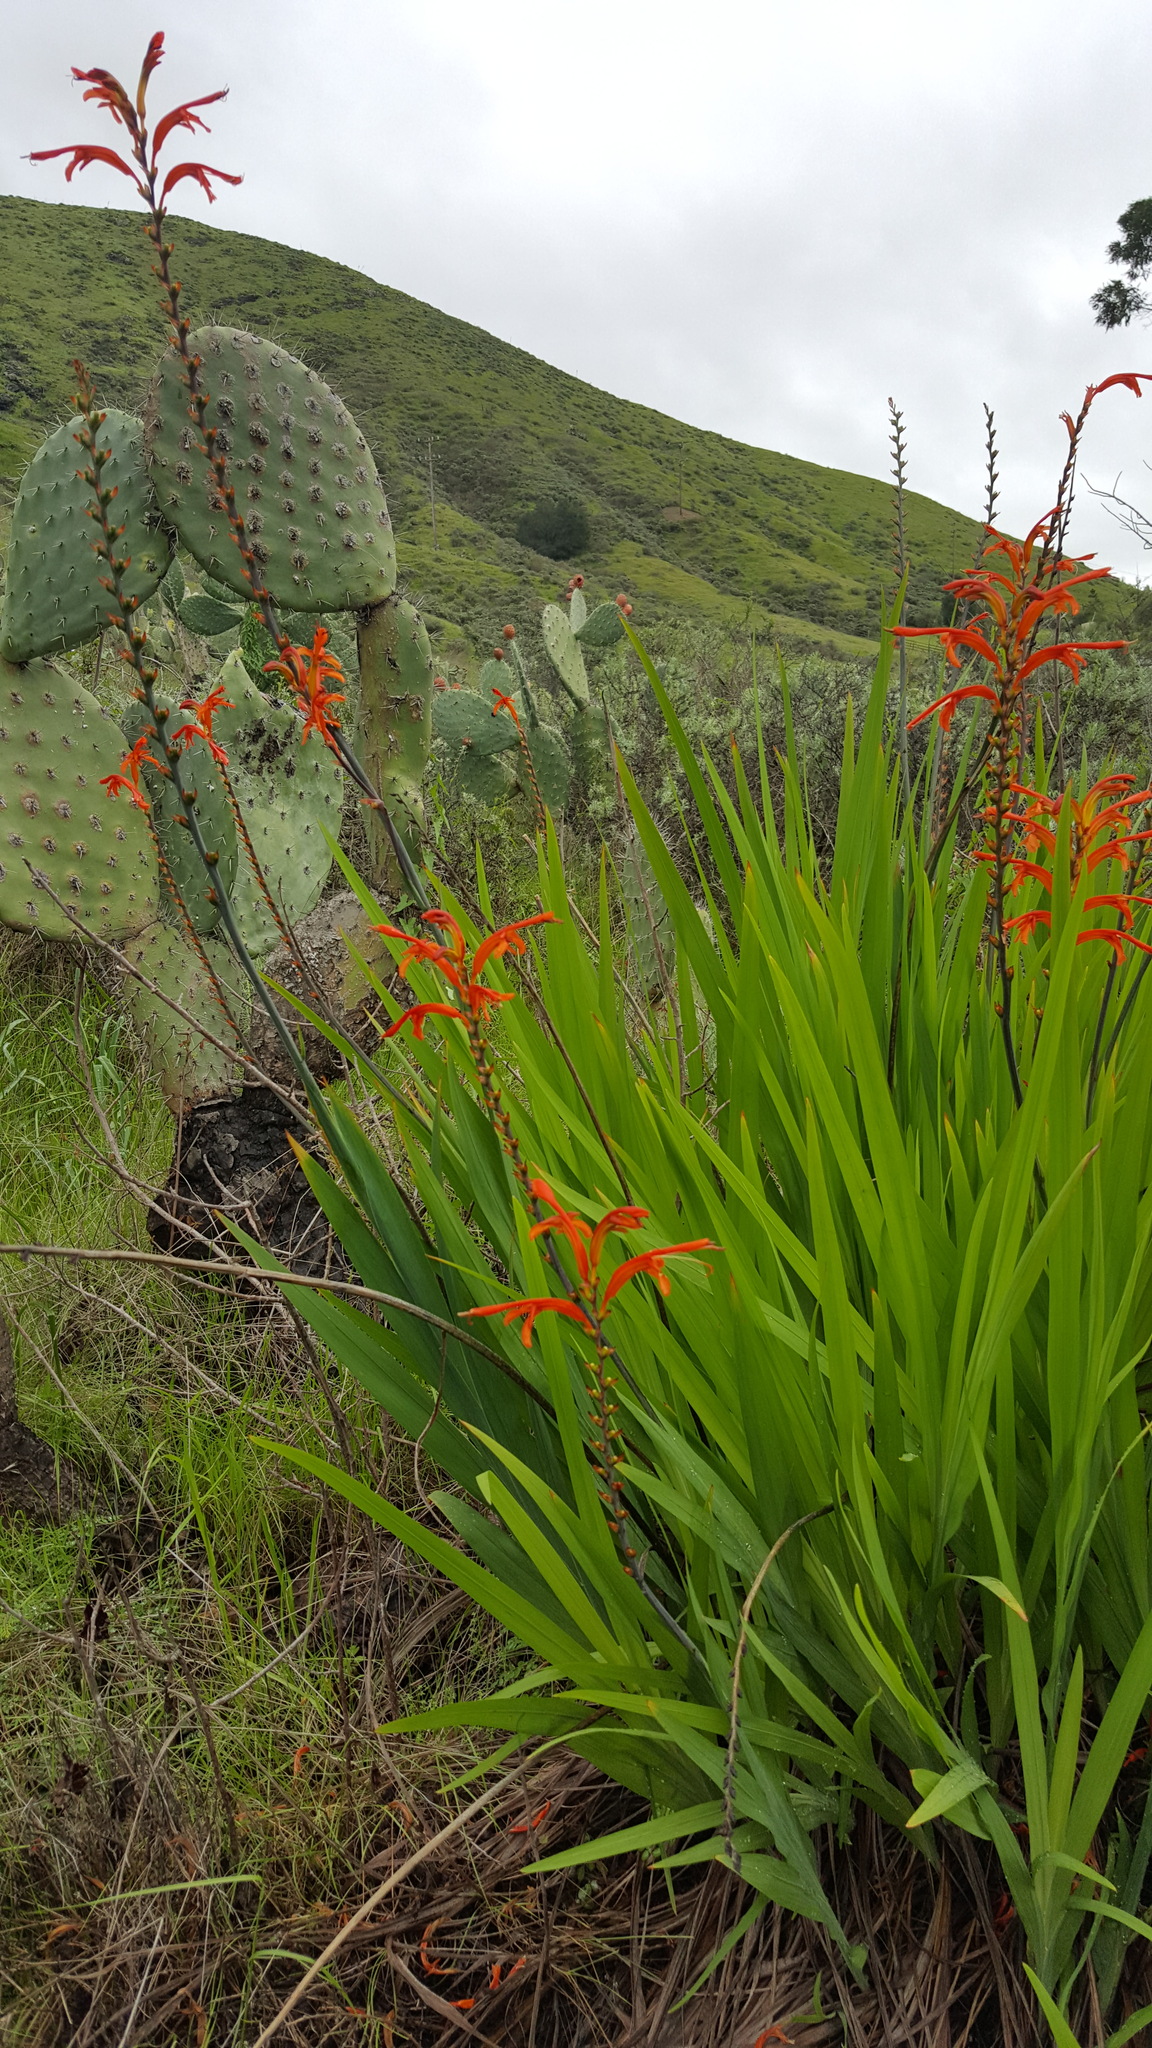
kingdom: Plantae
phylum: Tracheophyta
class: Liliopsida
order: Asparagales
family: Iridaceae
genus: Chasmanthe
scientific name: Chasmanthe floribunda
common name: African cornflag
